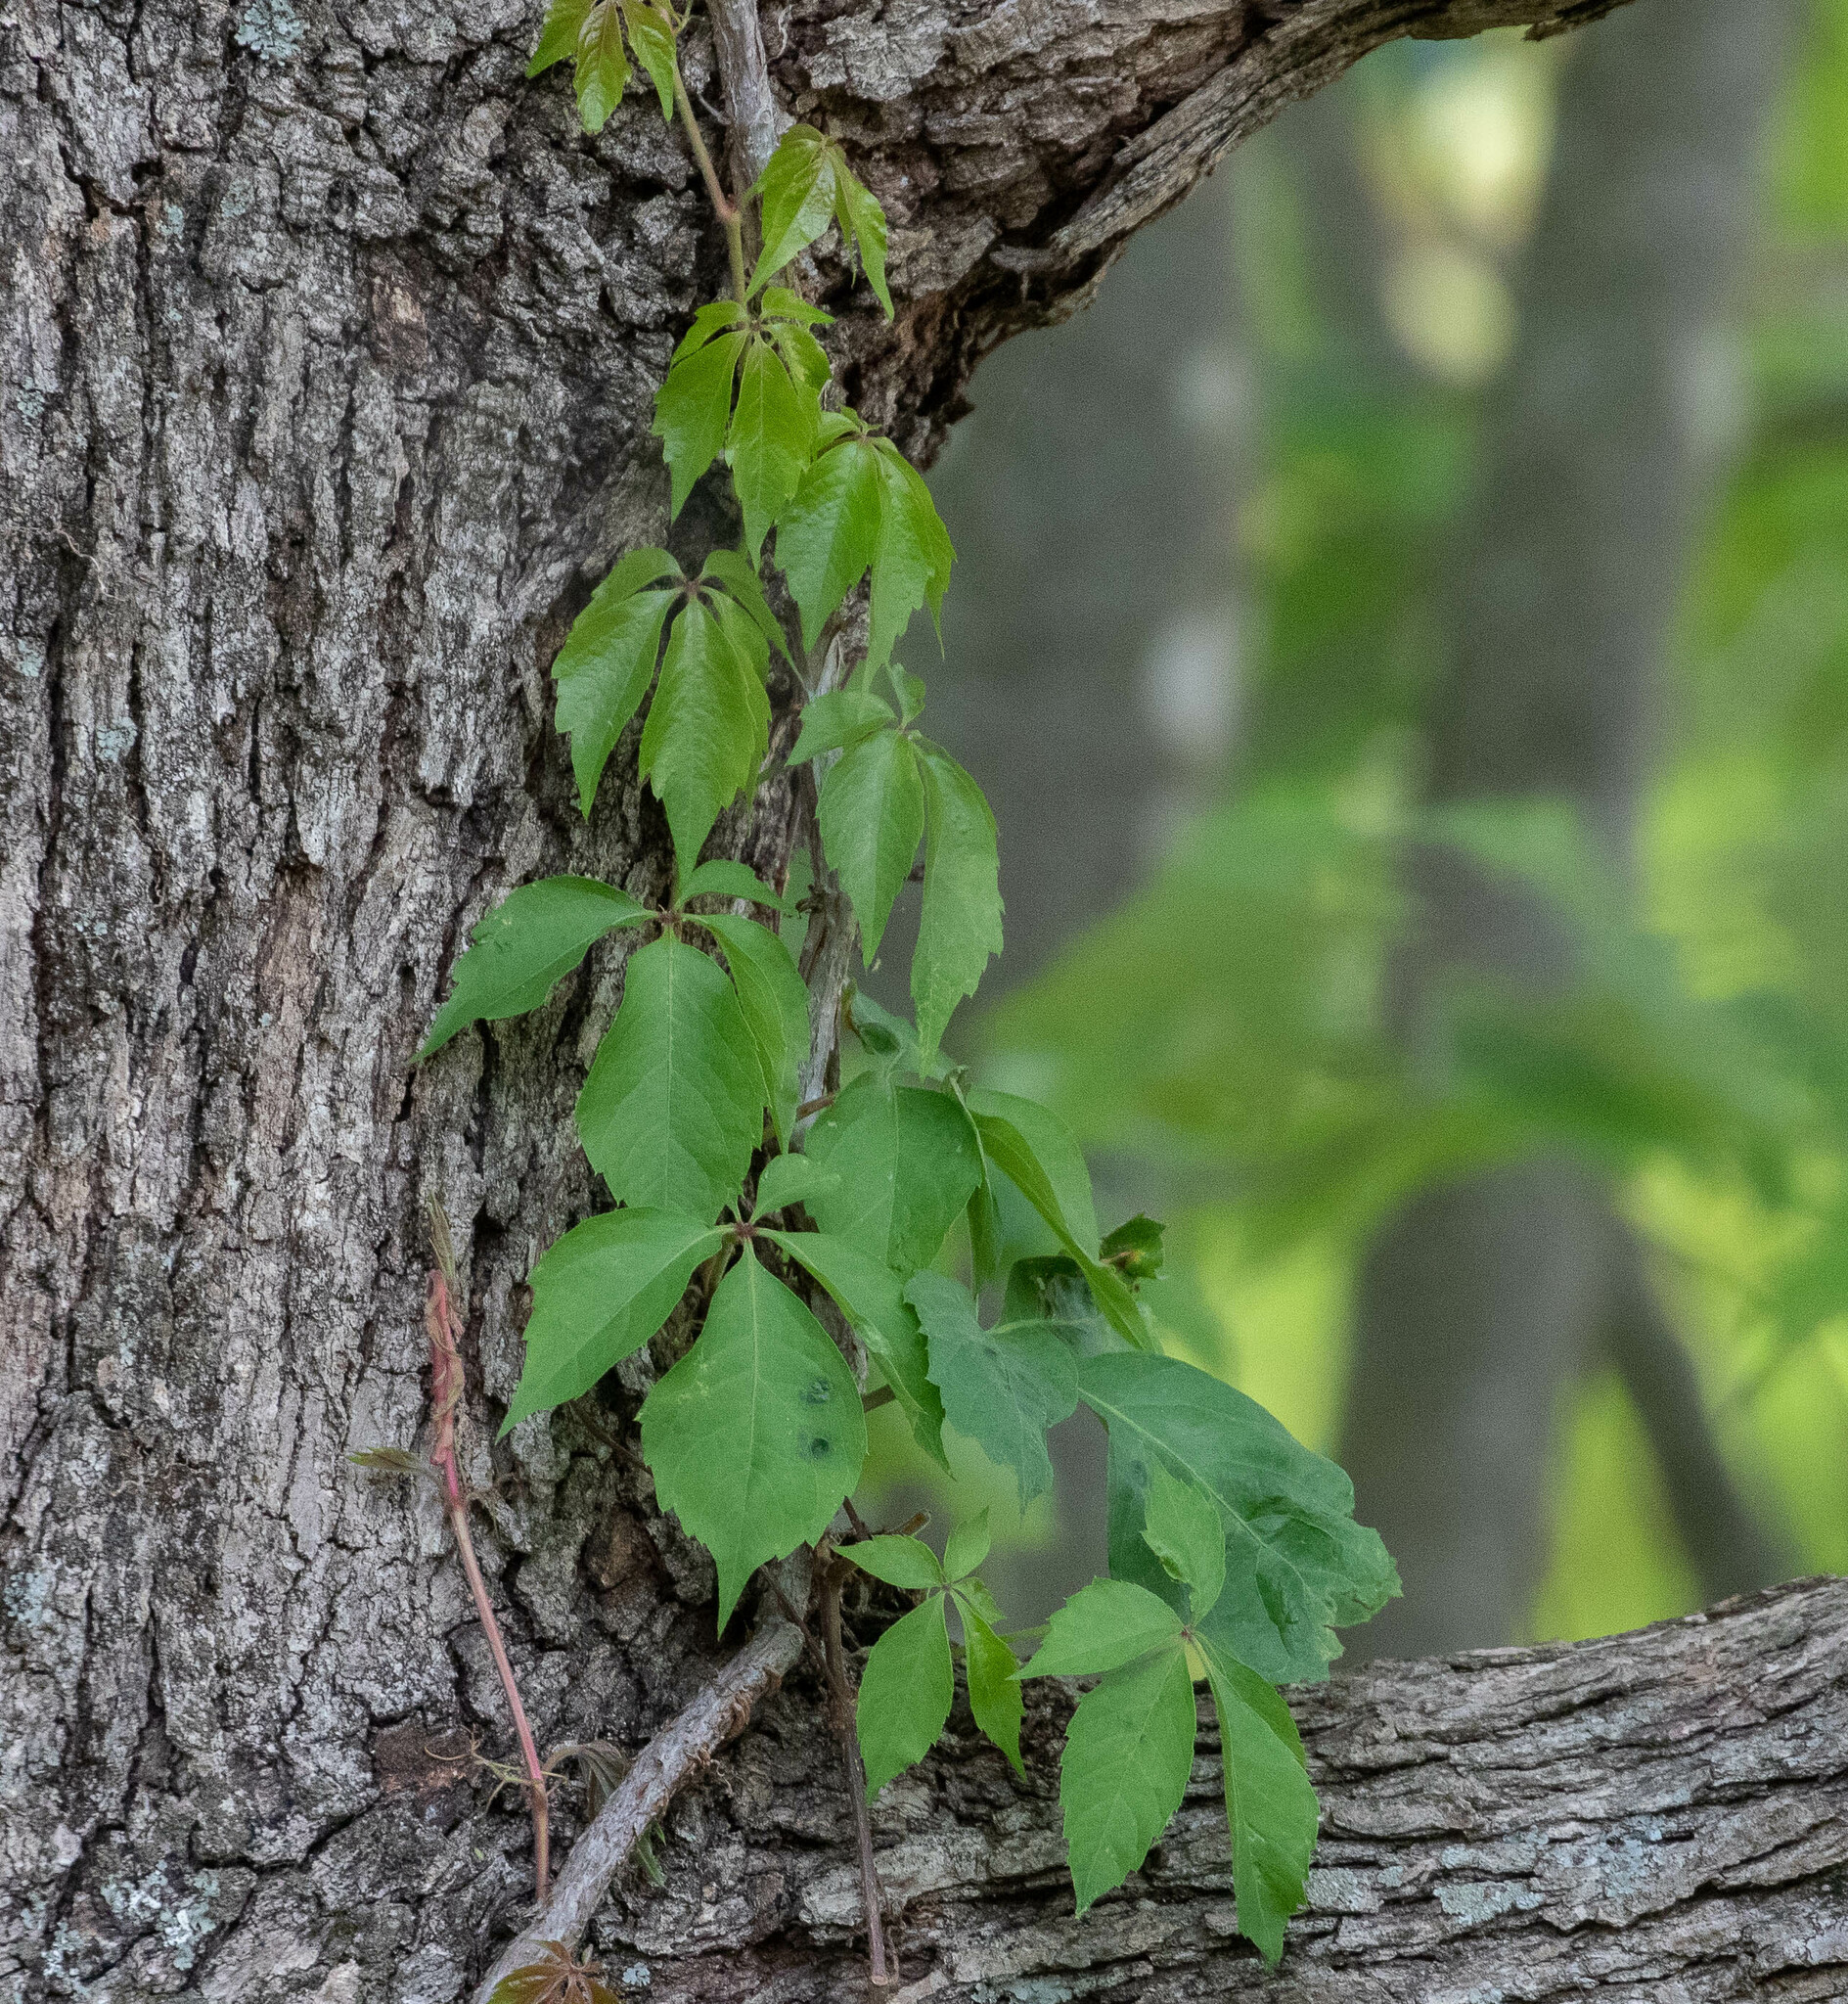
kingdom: Plantae
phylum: Tracheophyta
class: Magnoliopsida
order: Vitales
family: Vitaceae
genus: Parthenocissus
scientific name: Parthenocissus quinquefolia
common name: Virginia-creeper
